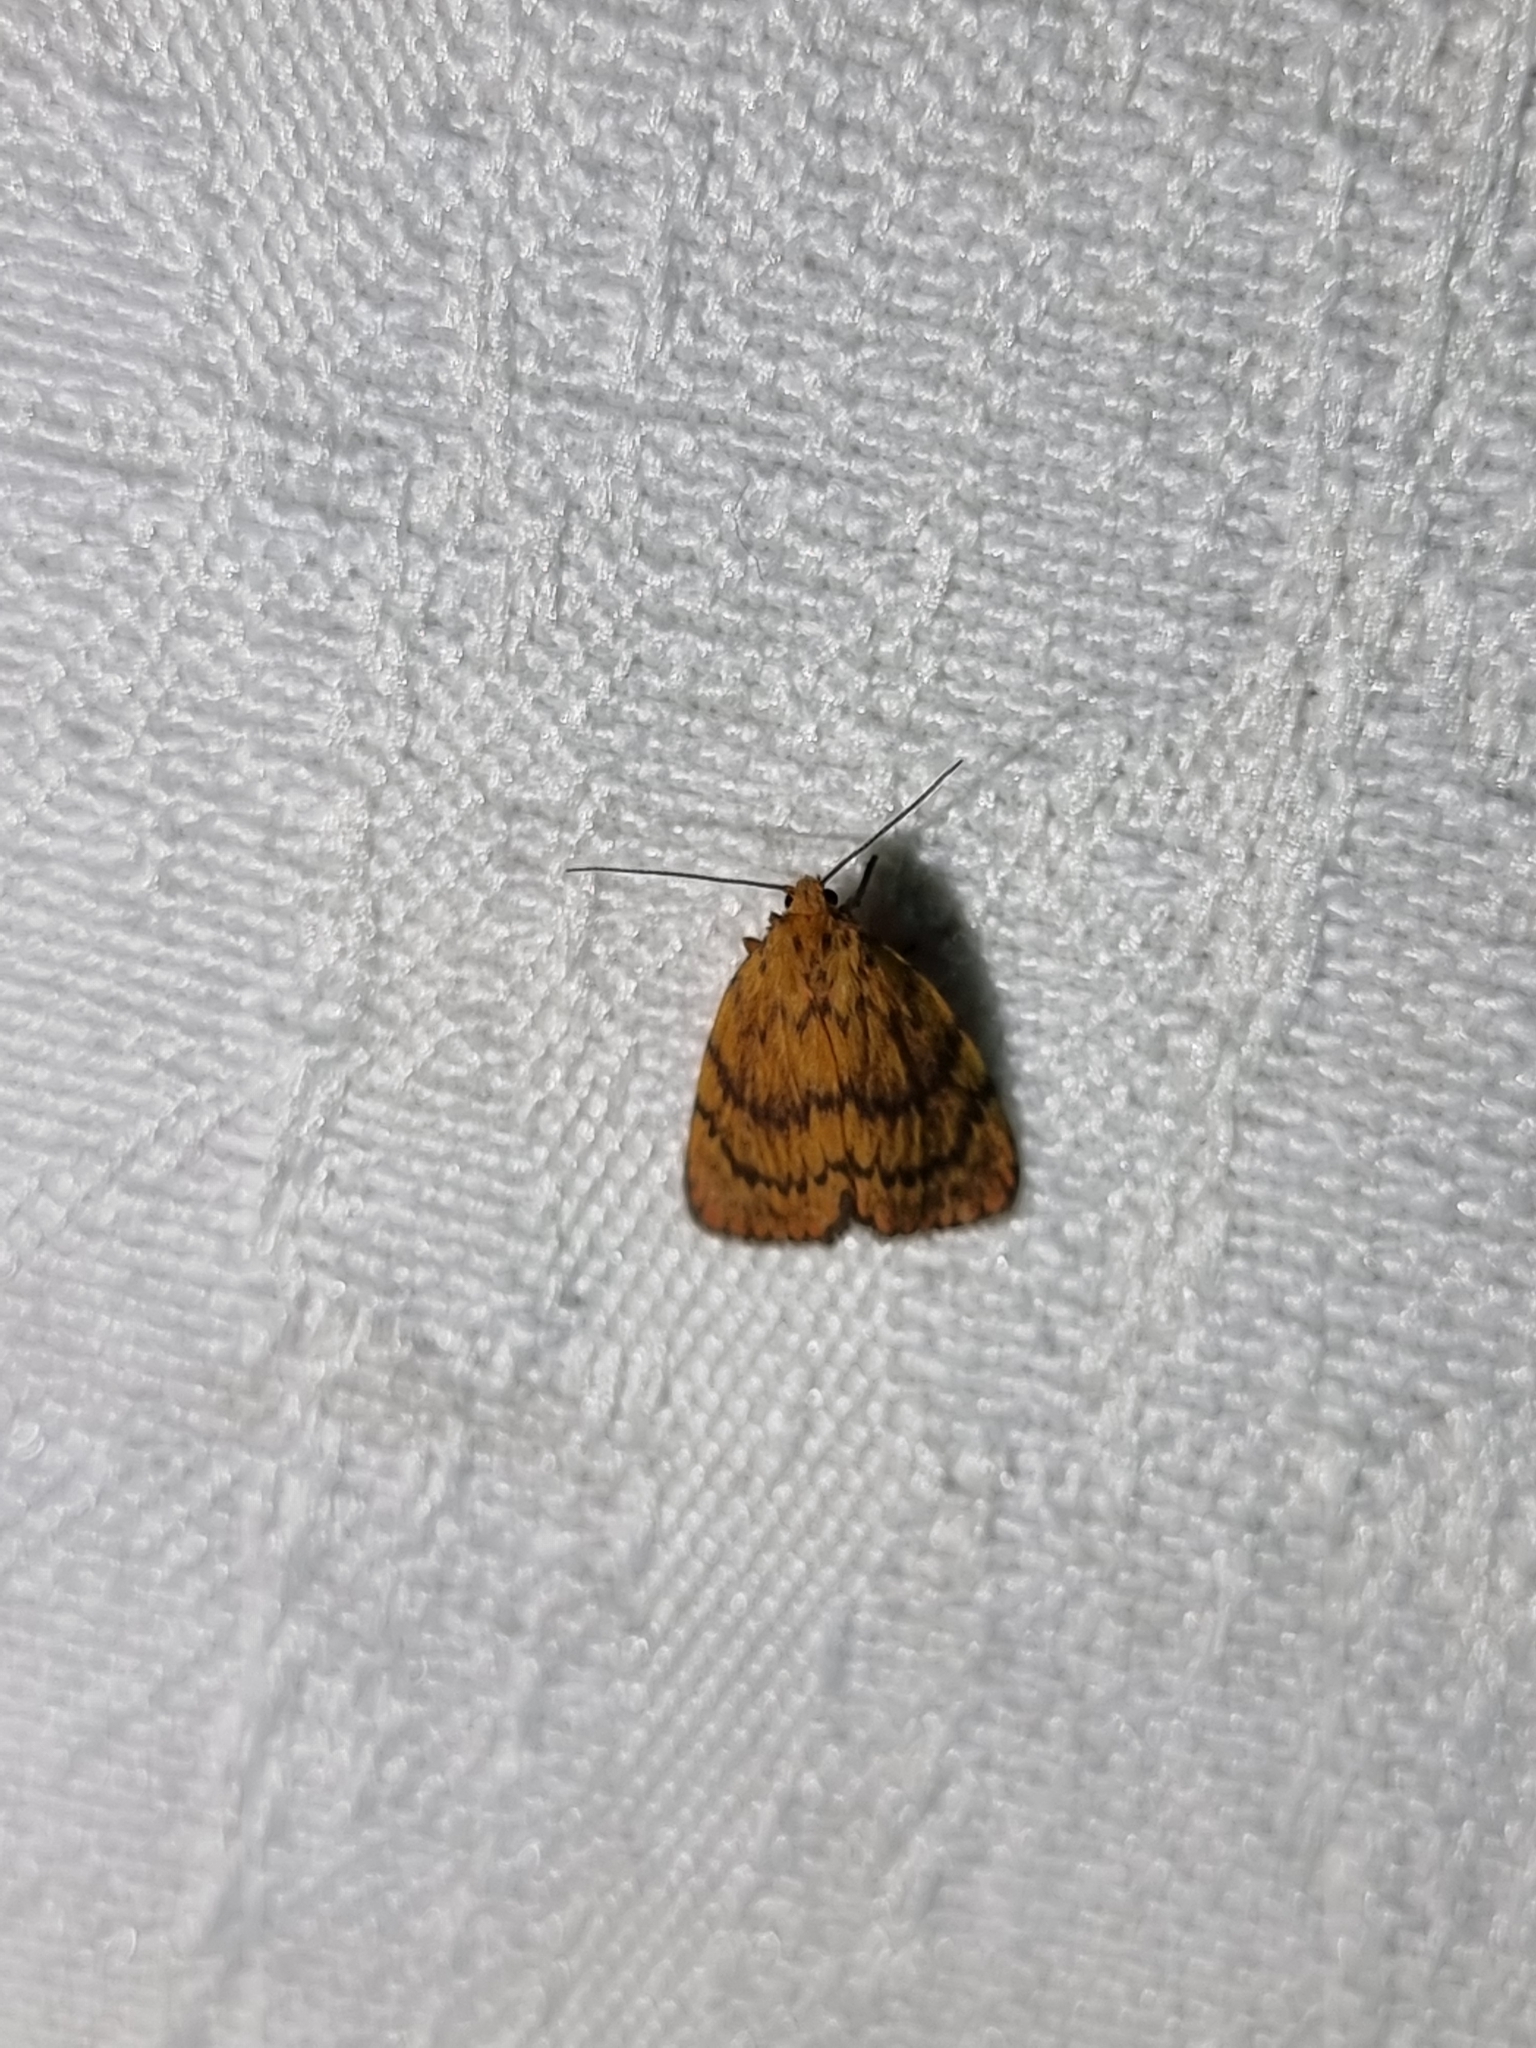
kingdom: Animalia
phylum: Arthropoda
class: Insecta
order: Lepidoptera
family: Erebidae
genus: Cyme
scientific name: Cyme structa
